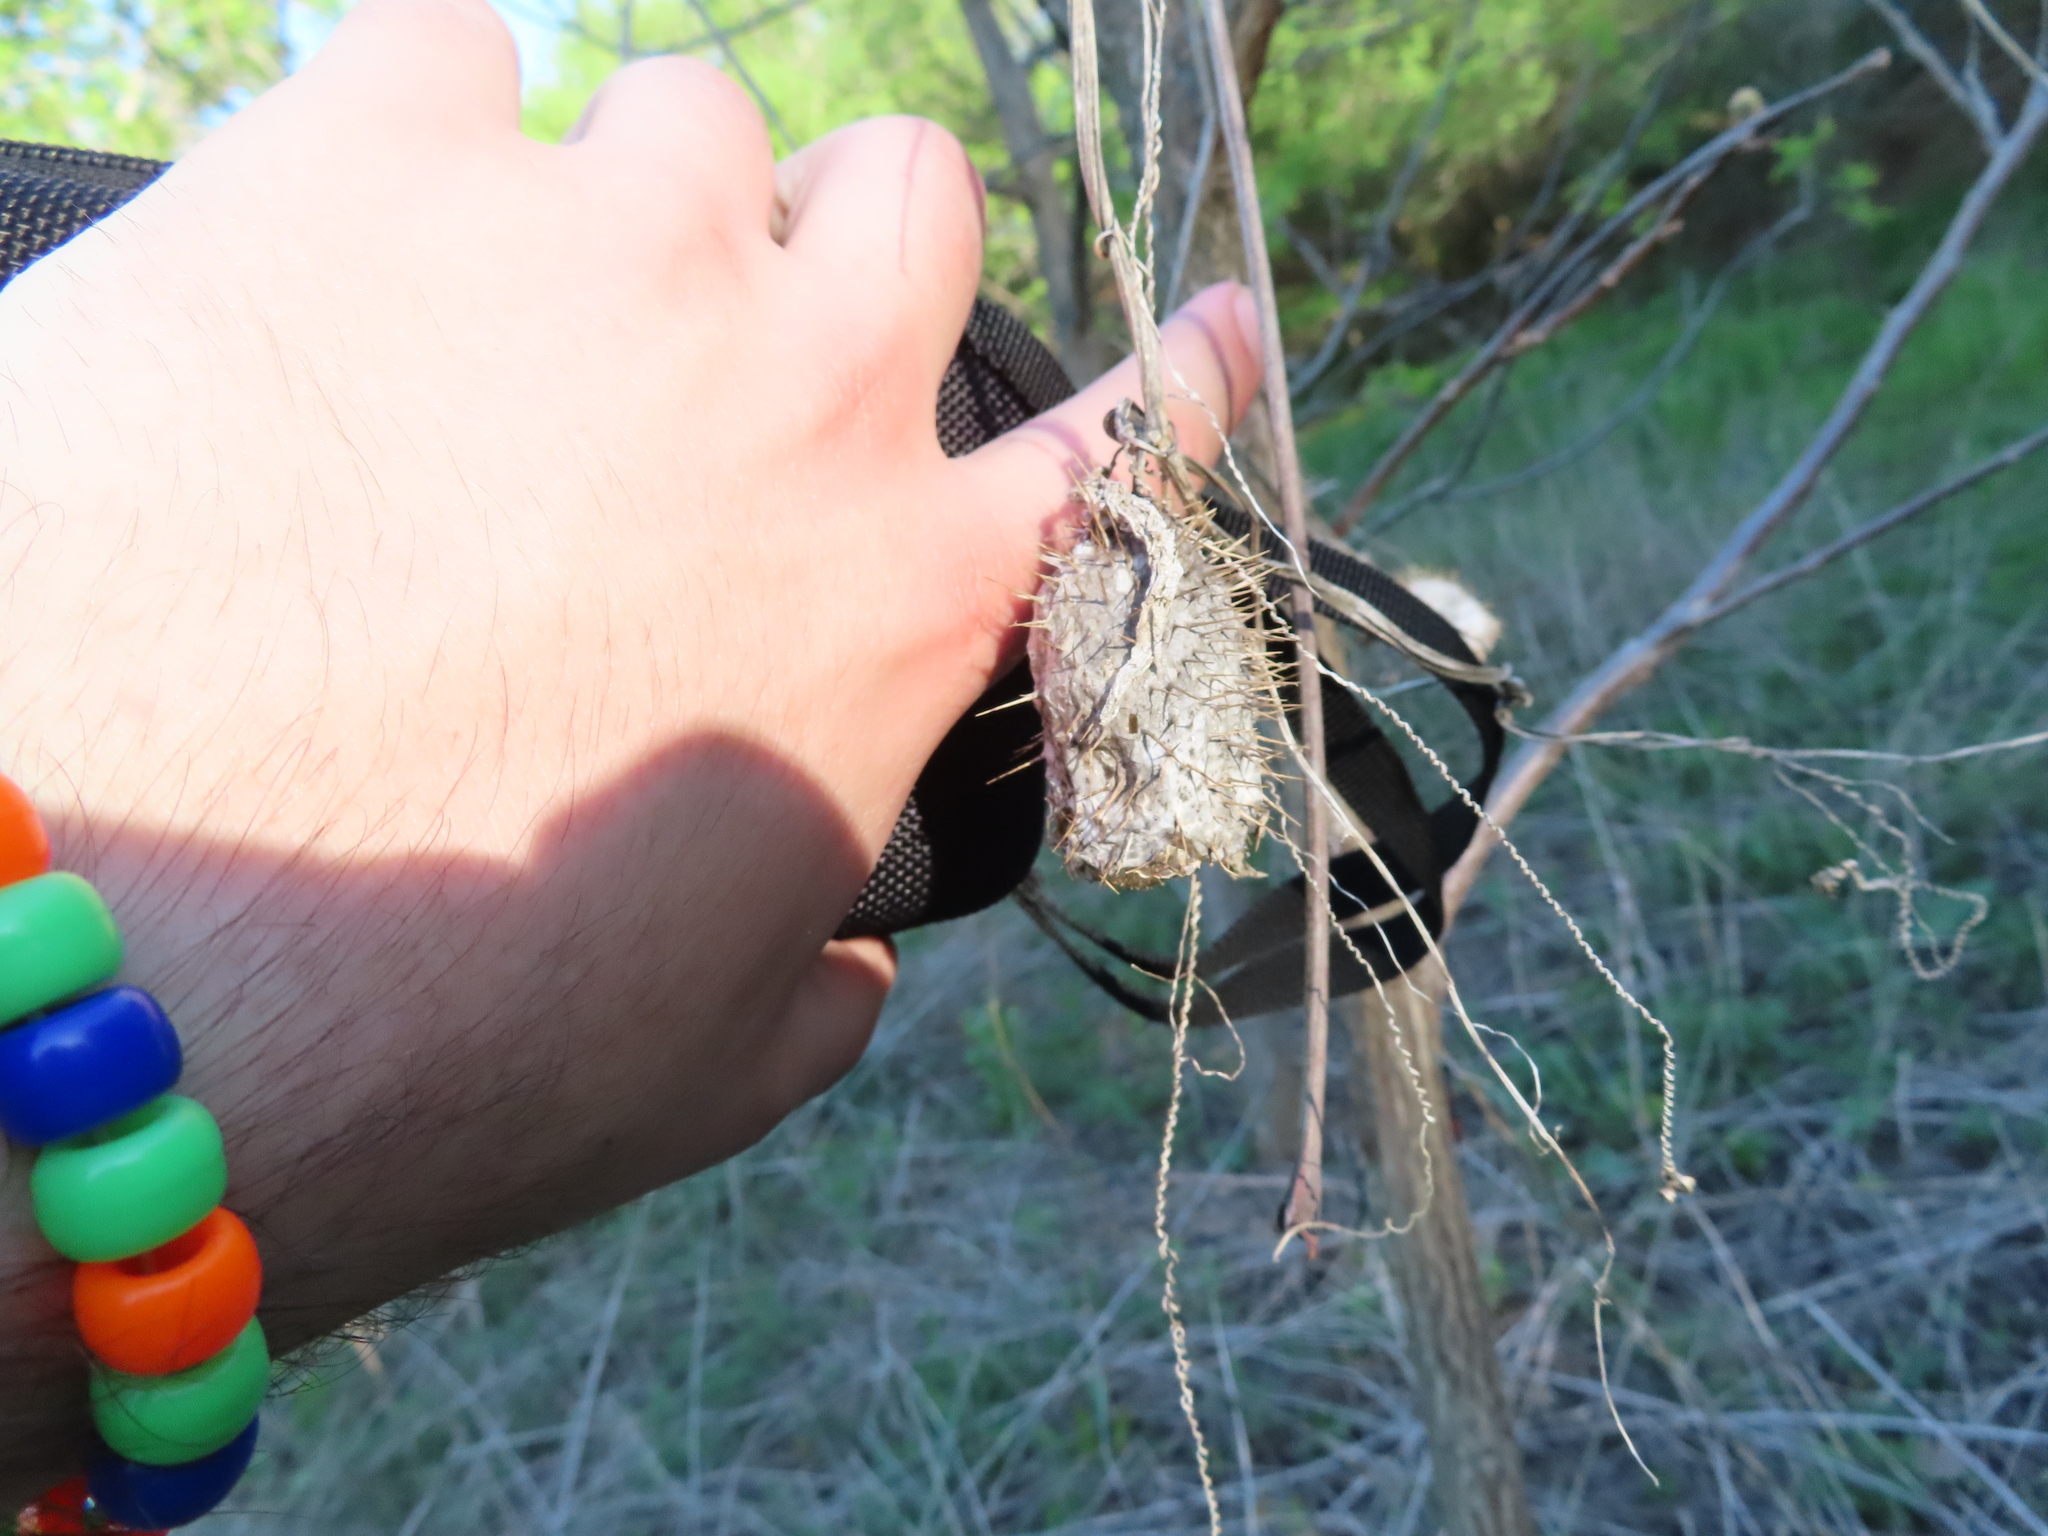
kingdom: Plantae
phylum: Tracheophyta
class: Magnoliopsida
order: Cucurbitales
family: Cucurbitaceae
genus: Echinocystis
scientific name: Echinocystis lobata
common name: Wild cucumber
